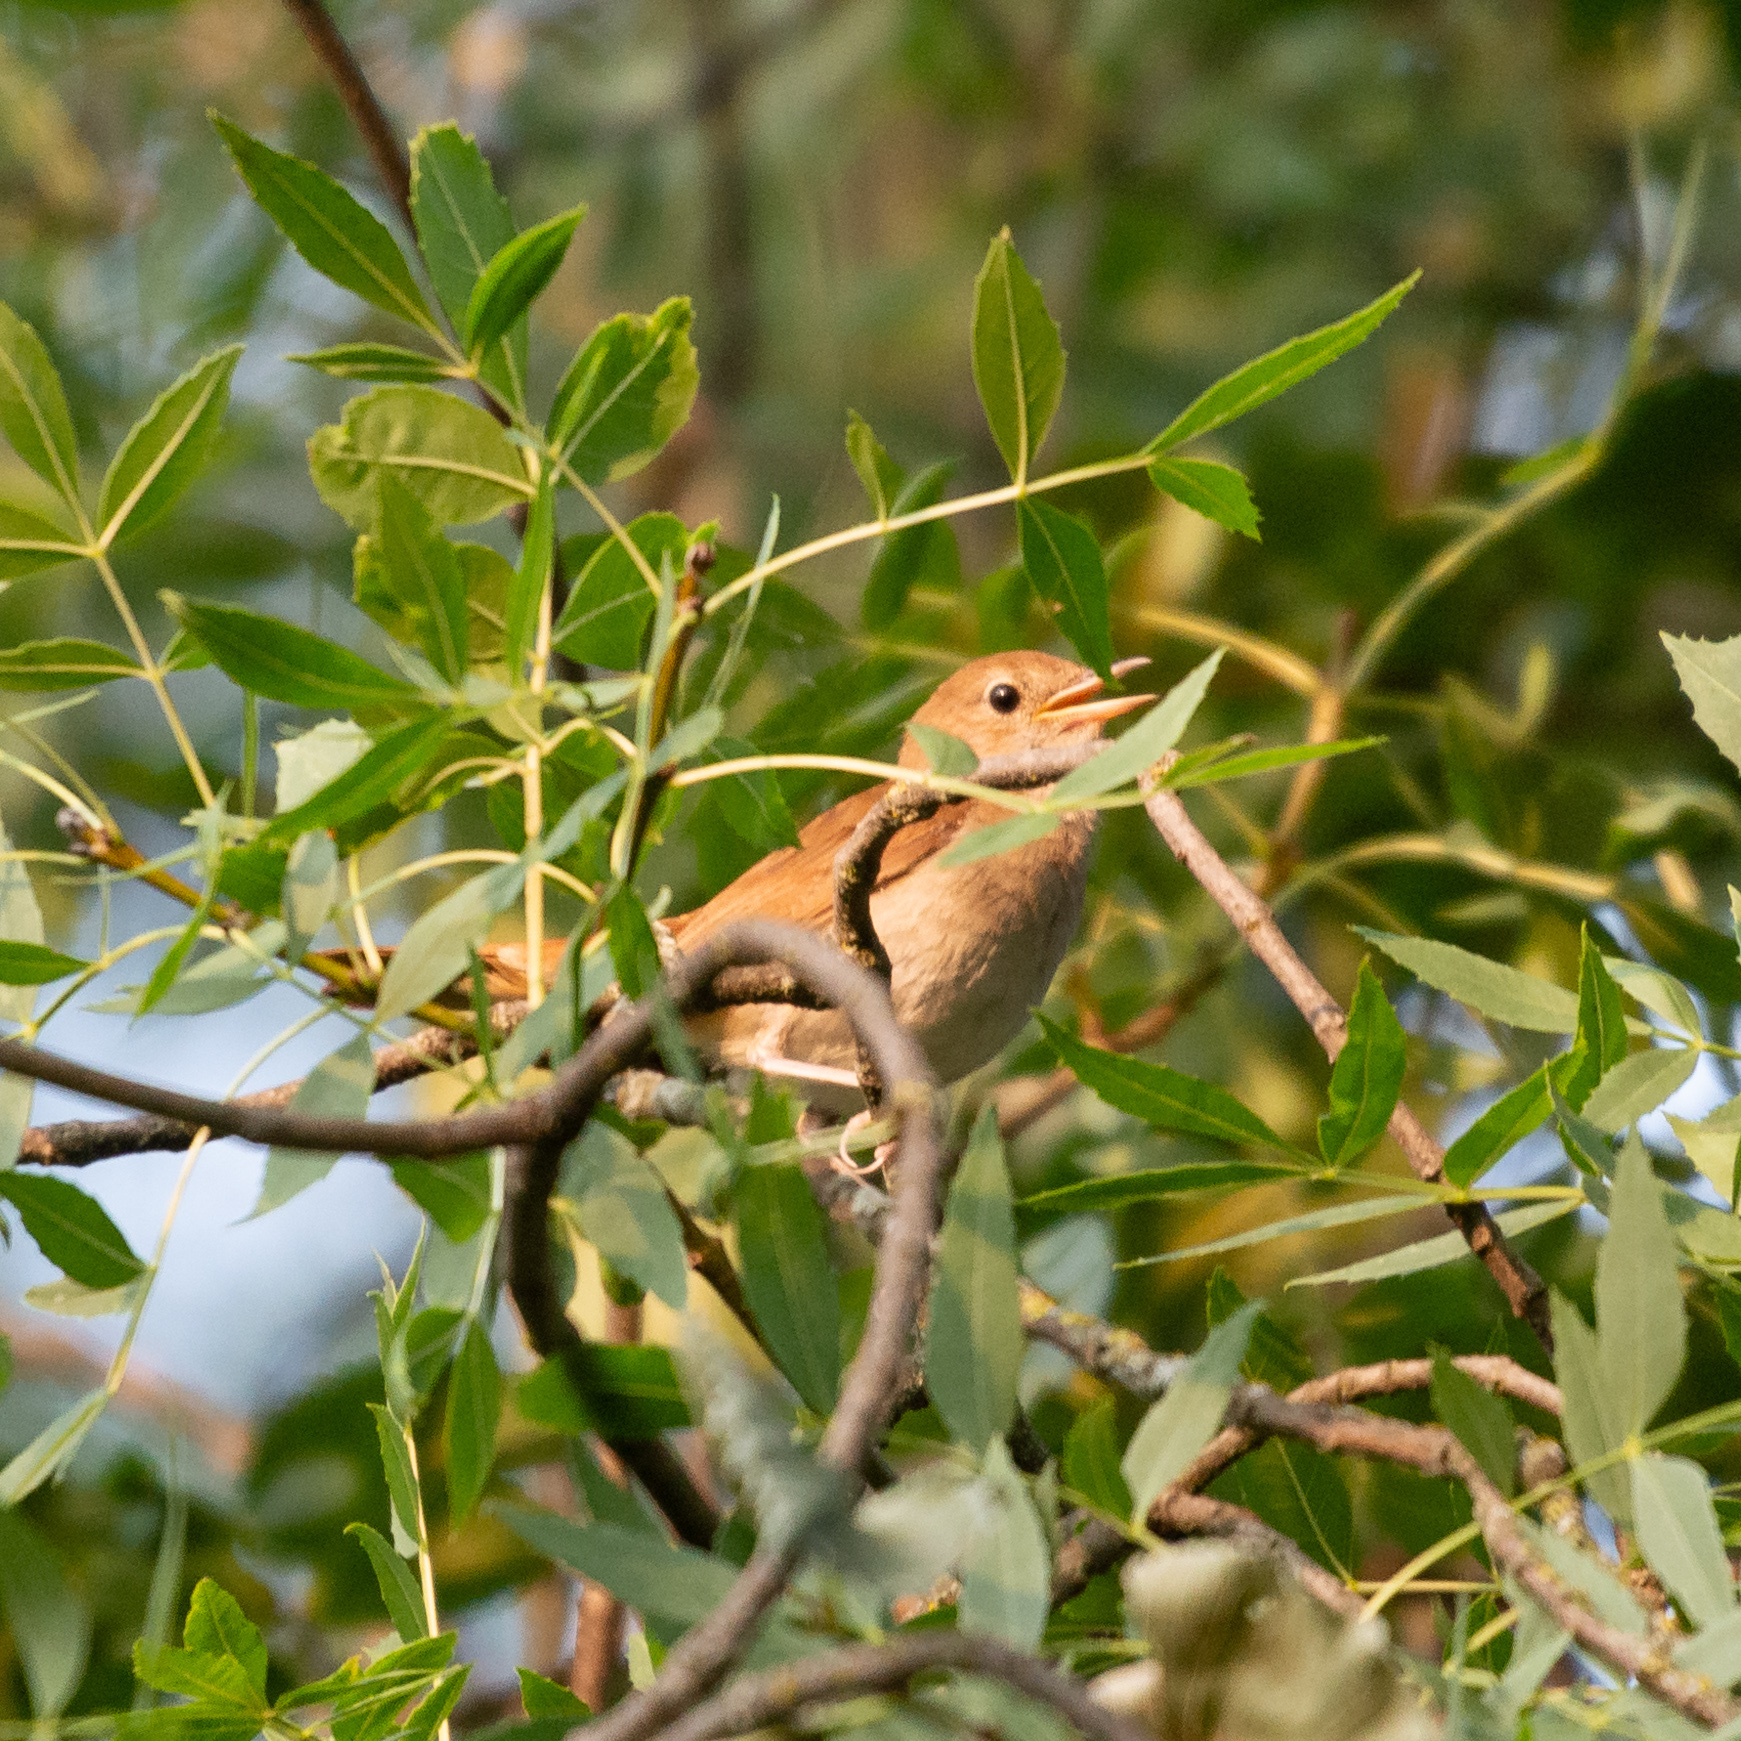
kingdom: Animalia
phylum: Chordata
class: Aves
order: Passeriformes
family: Muscicapidae
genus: Luscinia
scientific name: Luscinia megarhynchos
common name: Common nightingale
